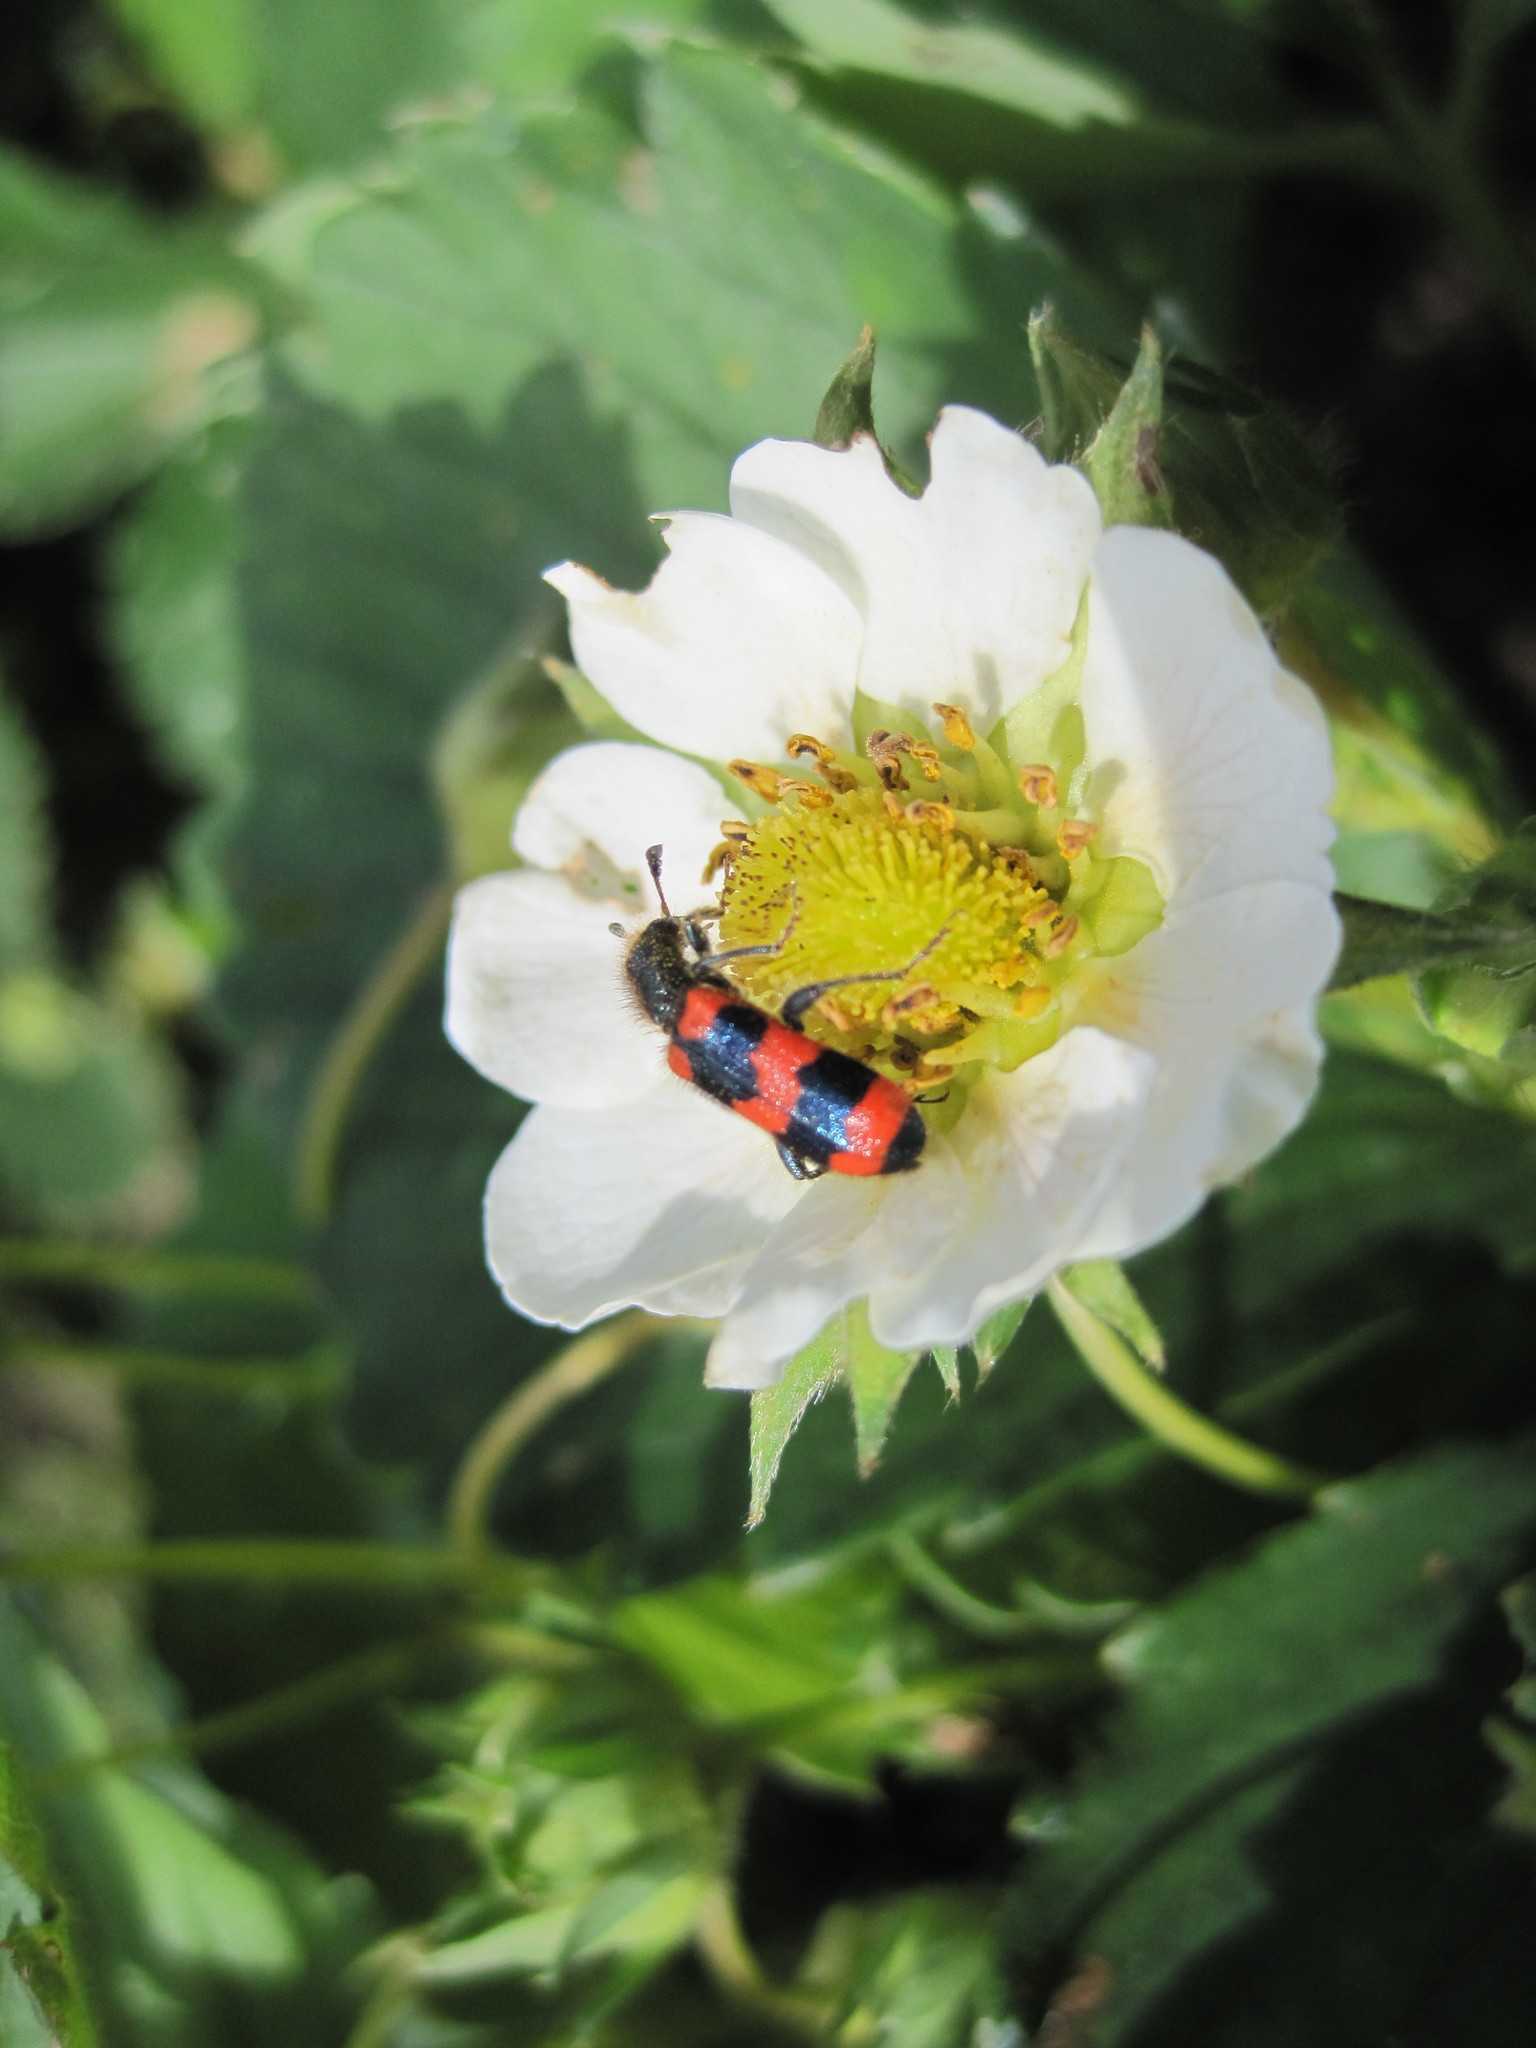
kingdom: Animalia
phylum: Arthropoda
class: Insecta
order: Coleoptera
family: Cleridae
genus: Trichodes
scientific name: Trichodes apiarius
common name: Bee-eating beetle
